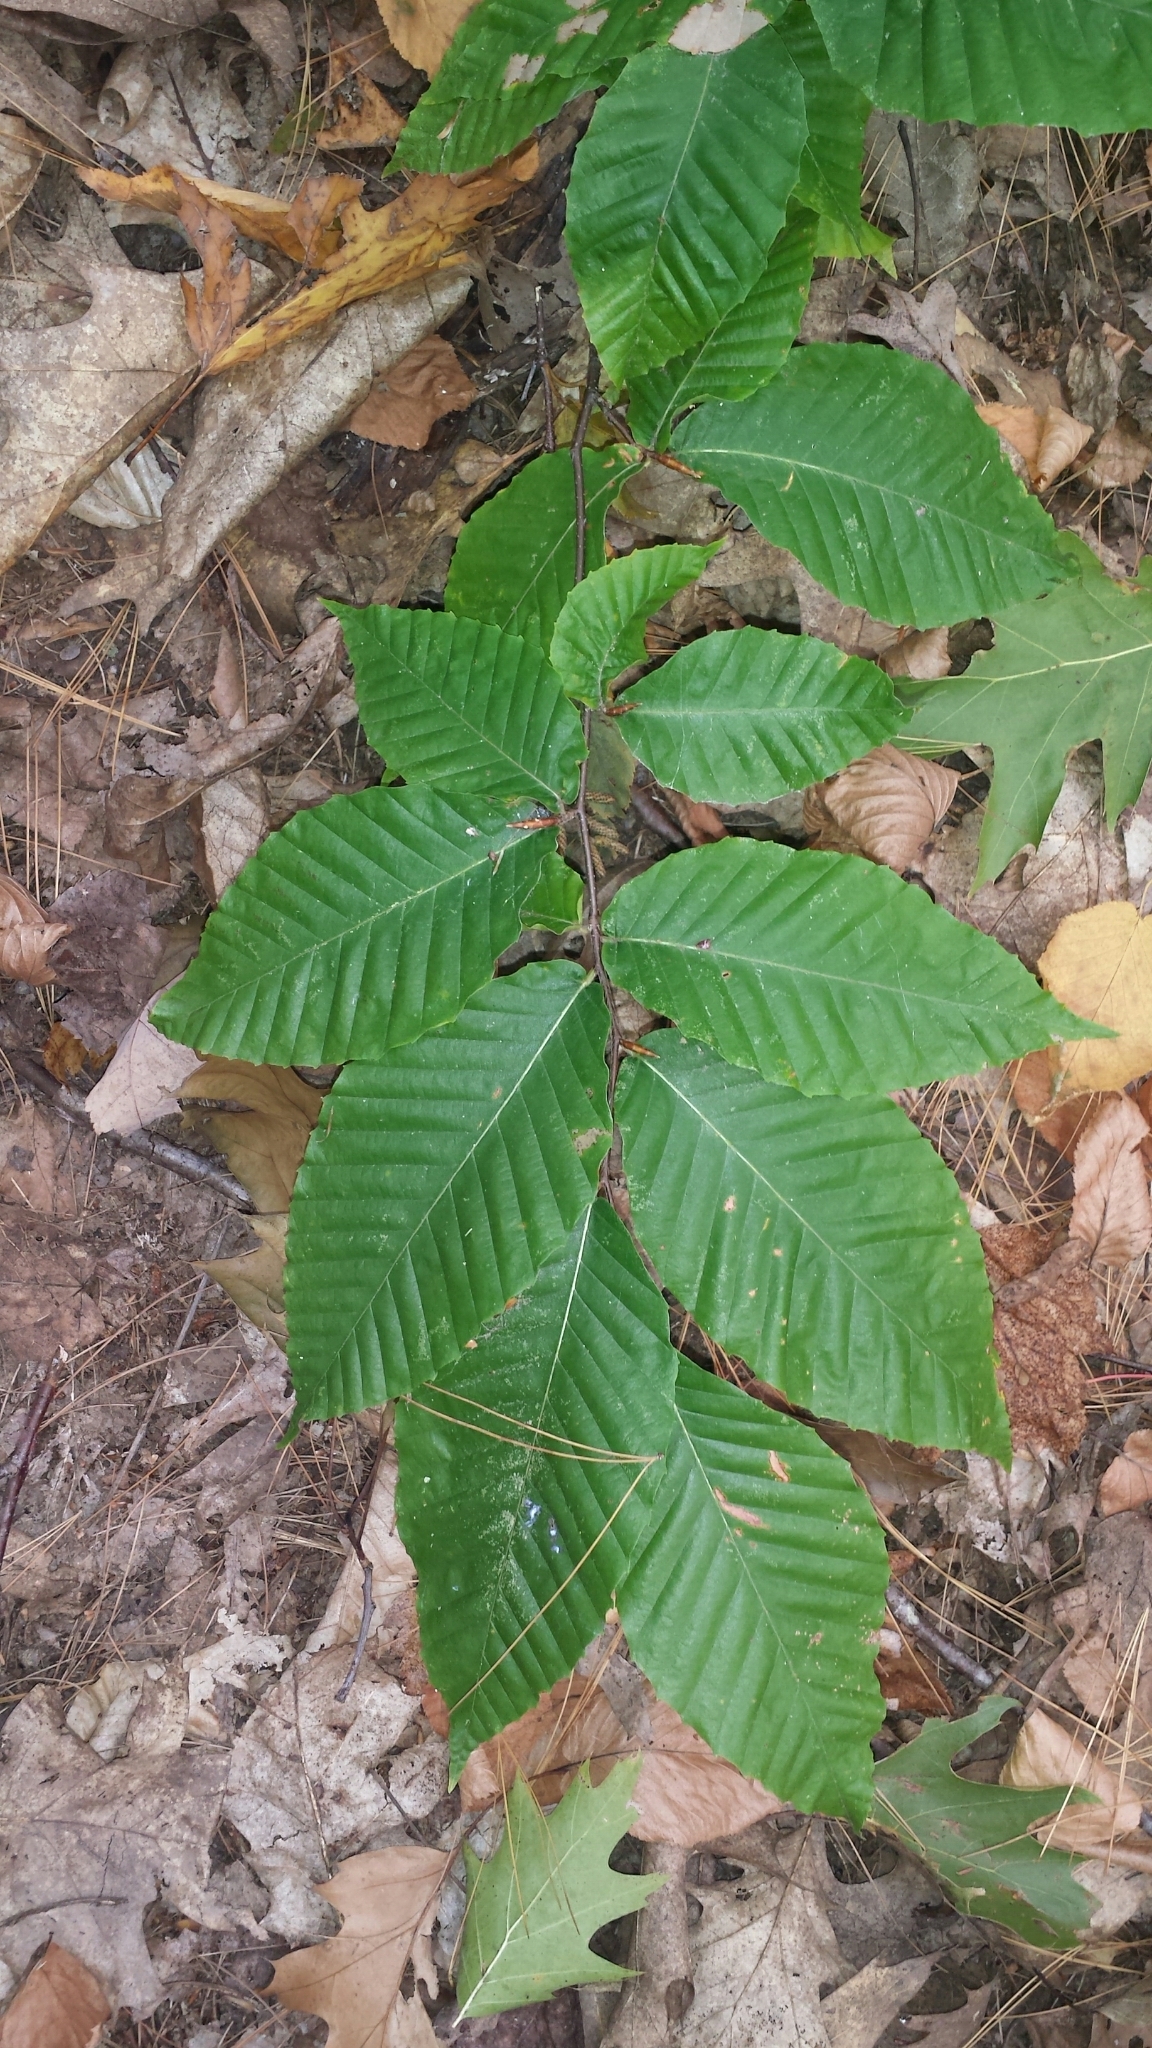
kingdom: Plantae
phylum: Tracheophyta
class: Magnoliopsida
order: Fagales
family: Fagaceae
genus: Fagus
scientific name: Fagus grandifolia
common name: American beech
